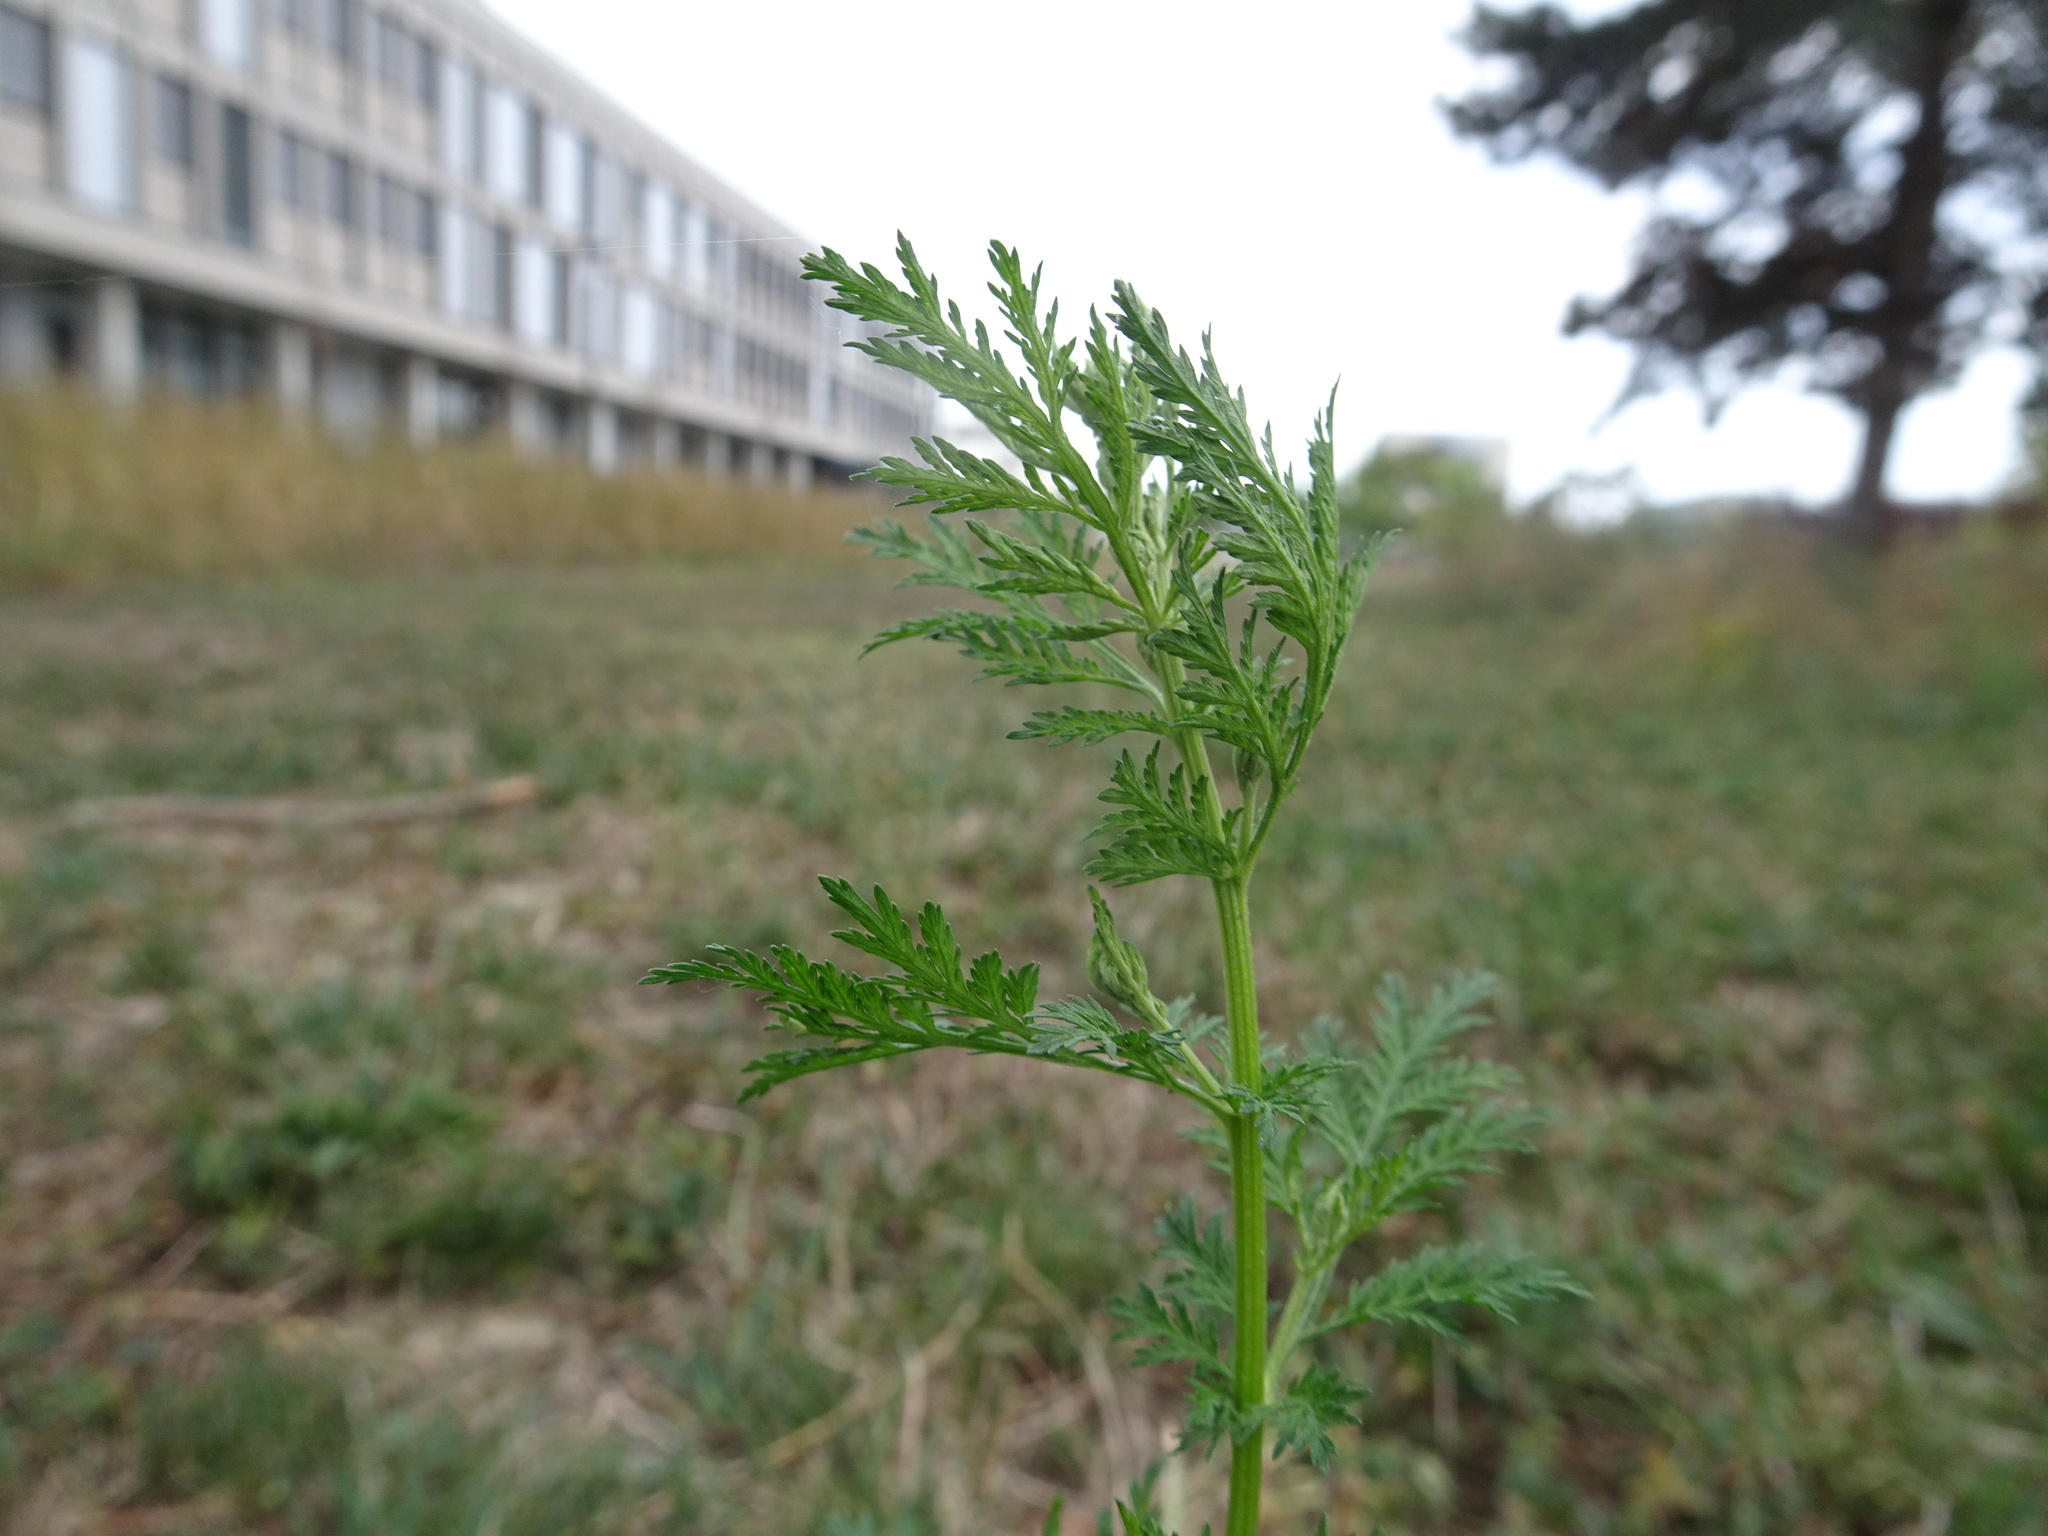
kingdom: Plantae
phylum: Tracheophyta
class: Magnoliopsida
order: Asterales
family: Asteraceae
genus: Artemisia
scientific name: Artemisia annua
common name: Sweet sagewort
